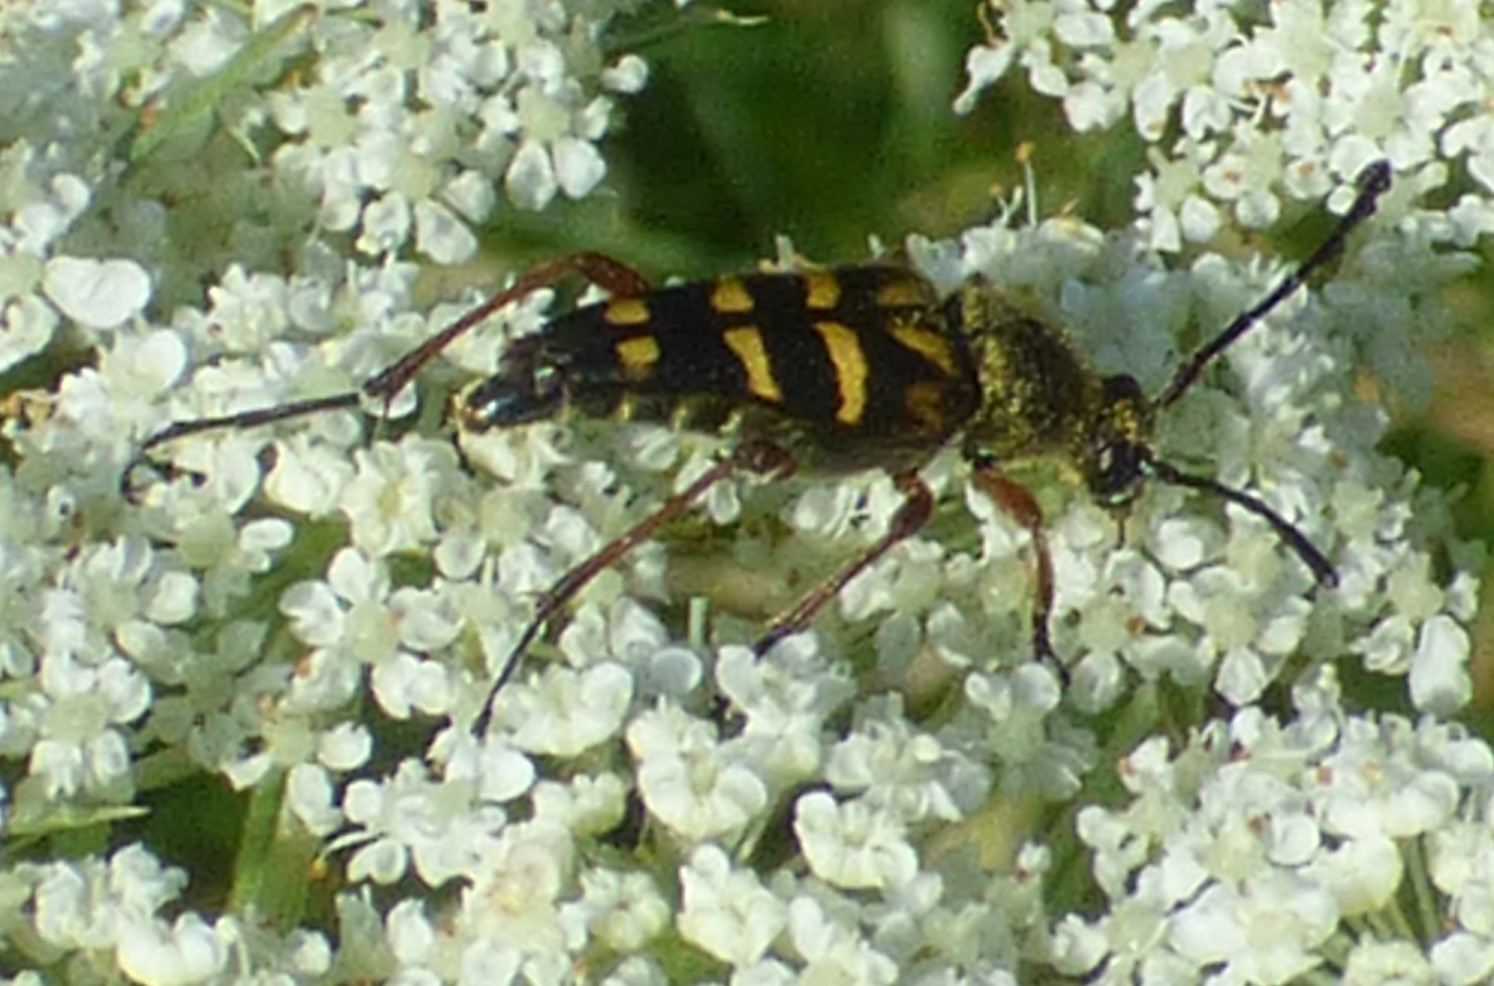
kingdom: Animalia
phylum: Arthropoda
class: Insecta
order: Coleoptera
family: Cerambycidae
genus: Typocerus
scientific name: Typocerus zebra
